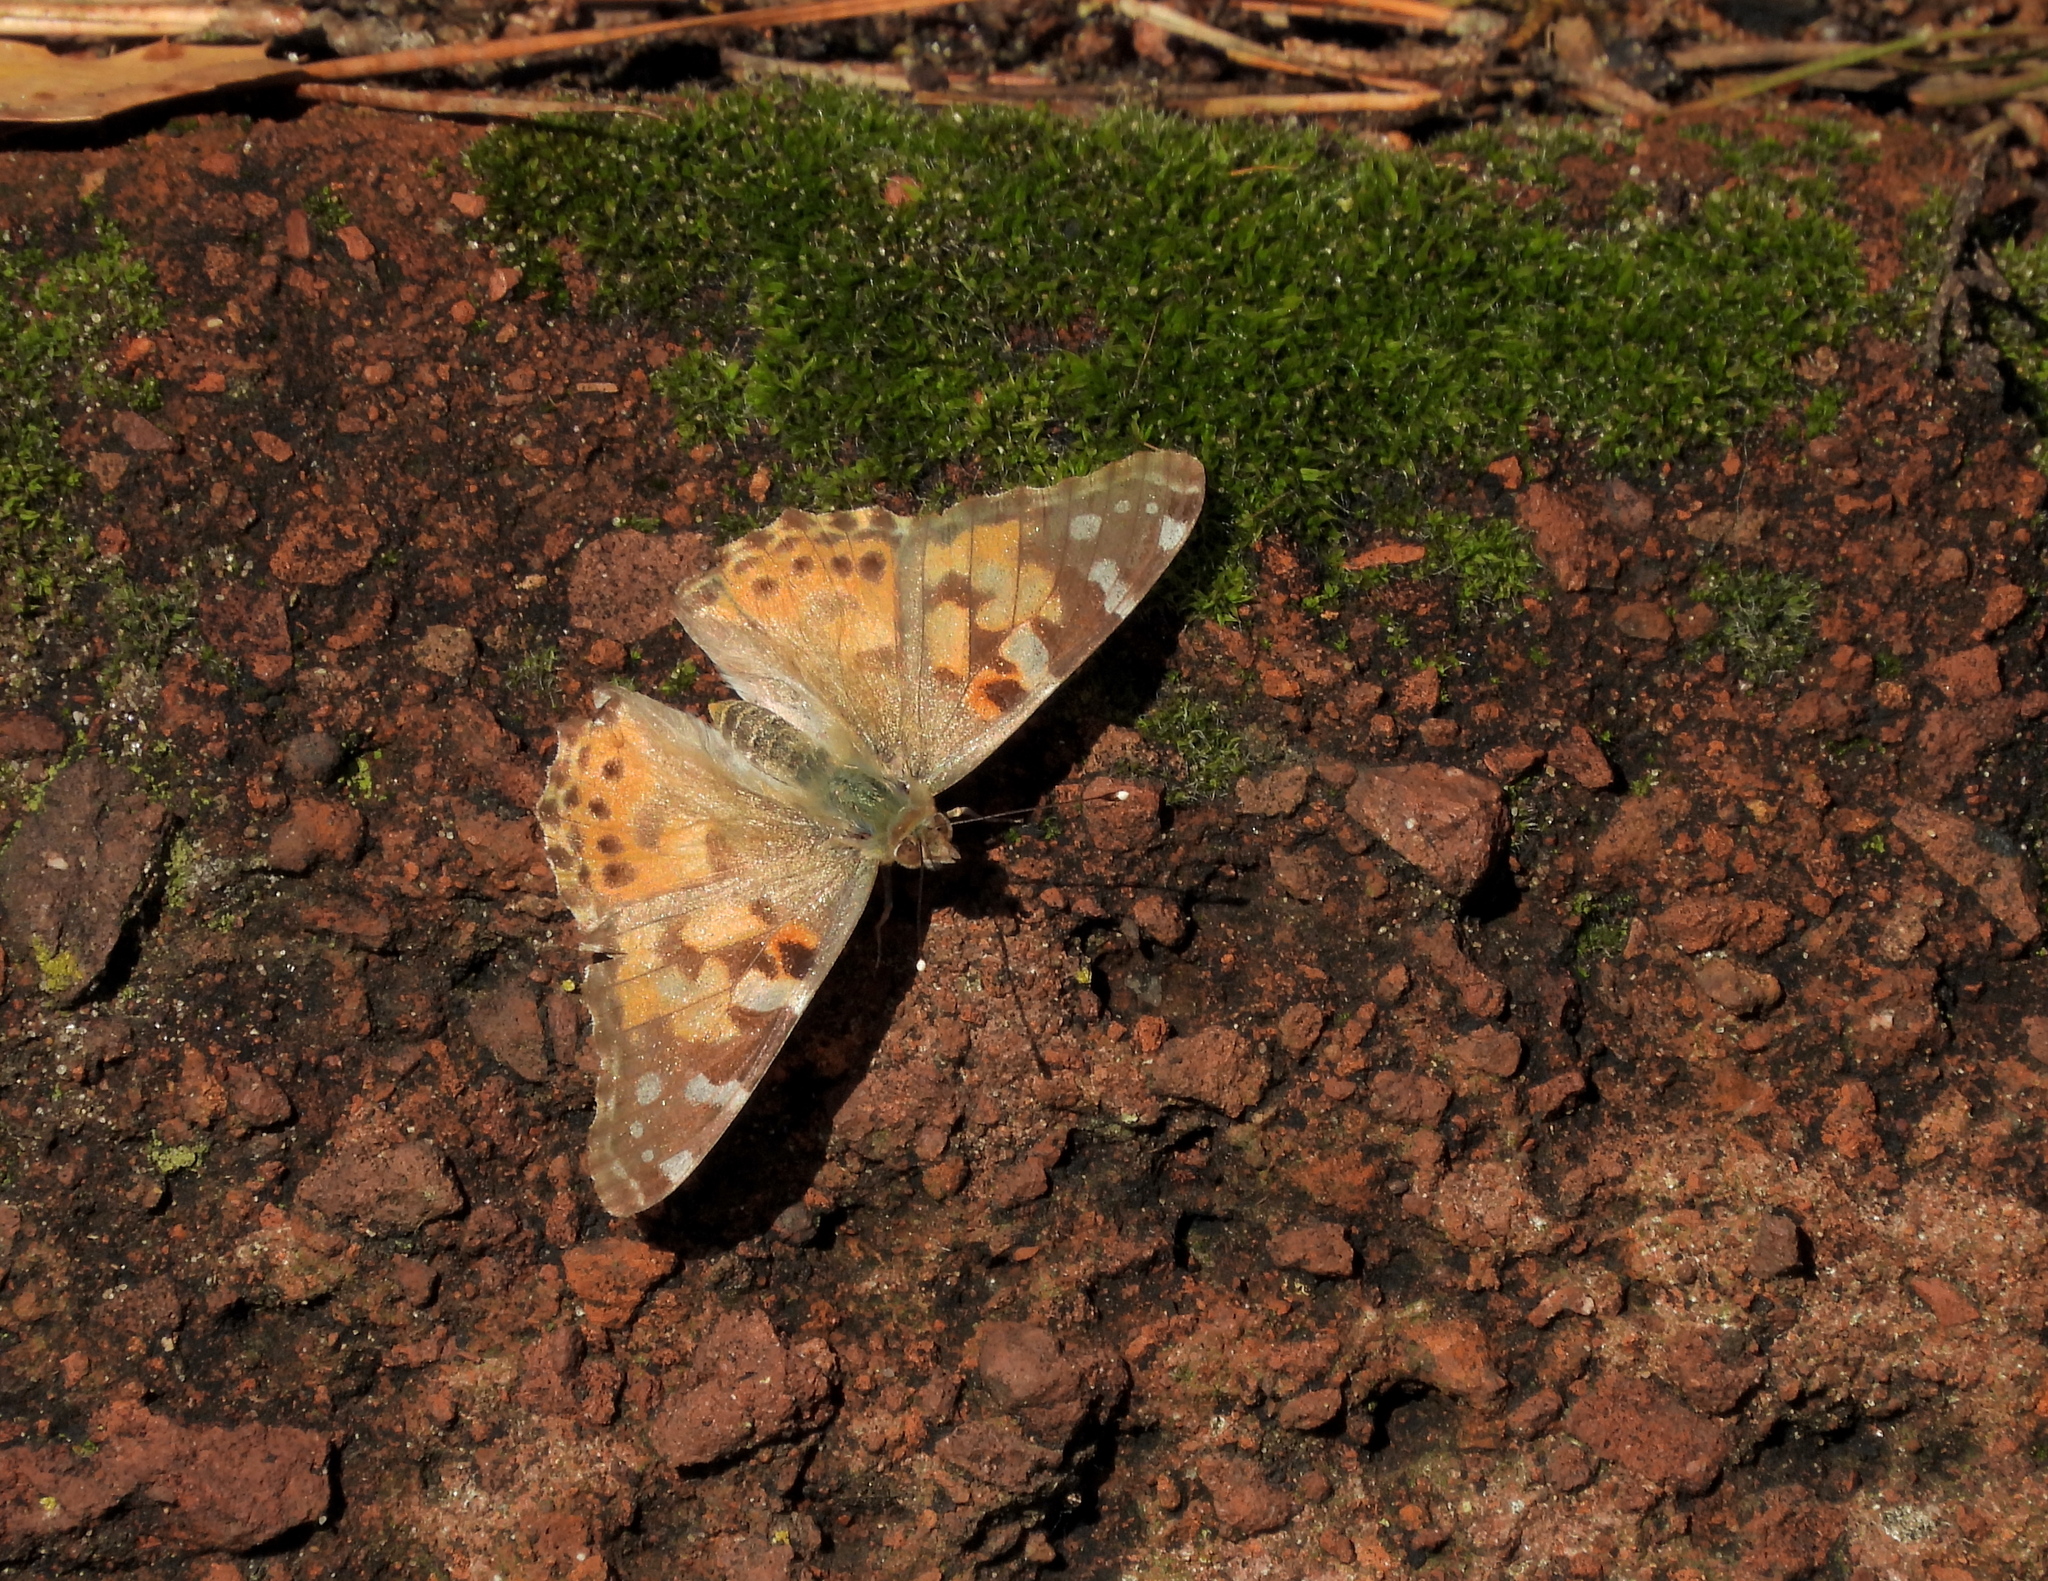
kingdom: Animalia
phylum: Arthropoda
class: Insecta
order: Lepidoptera
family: Nymphalidae
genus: Vanessa
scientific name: Vanessa cardui
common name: Painted lady
